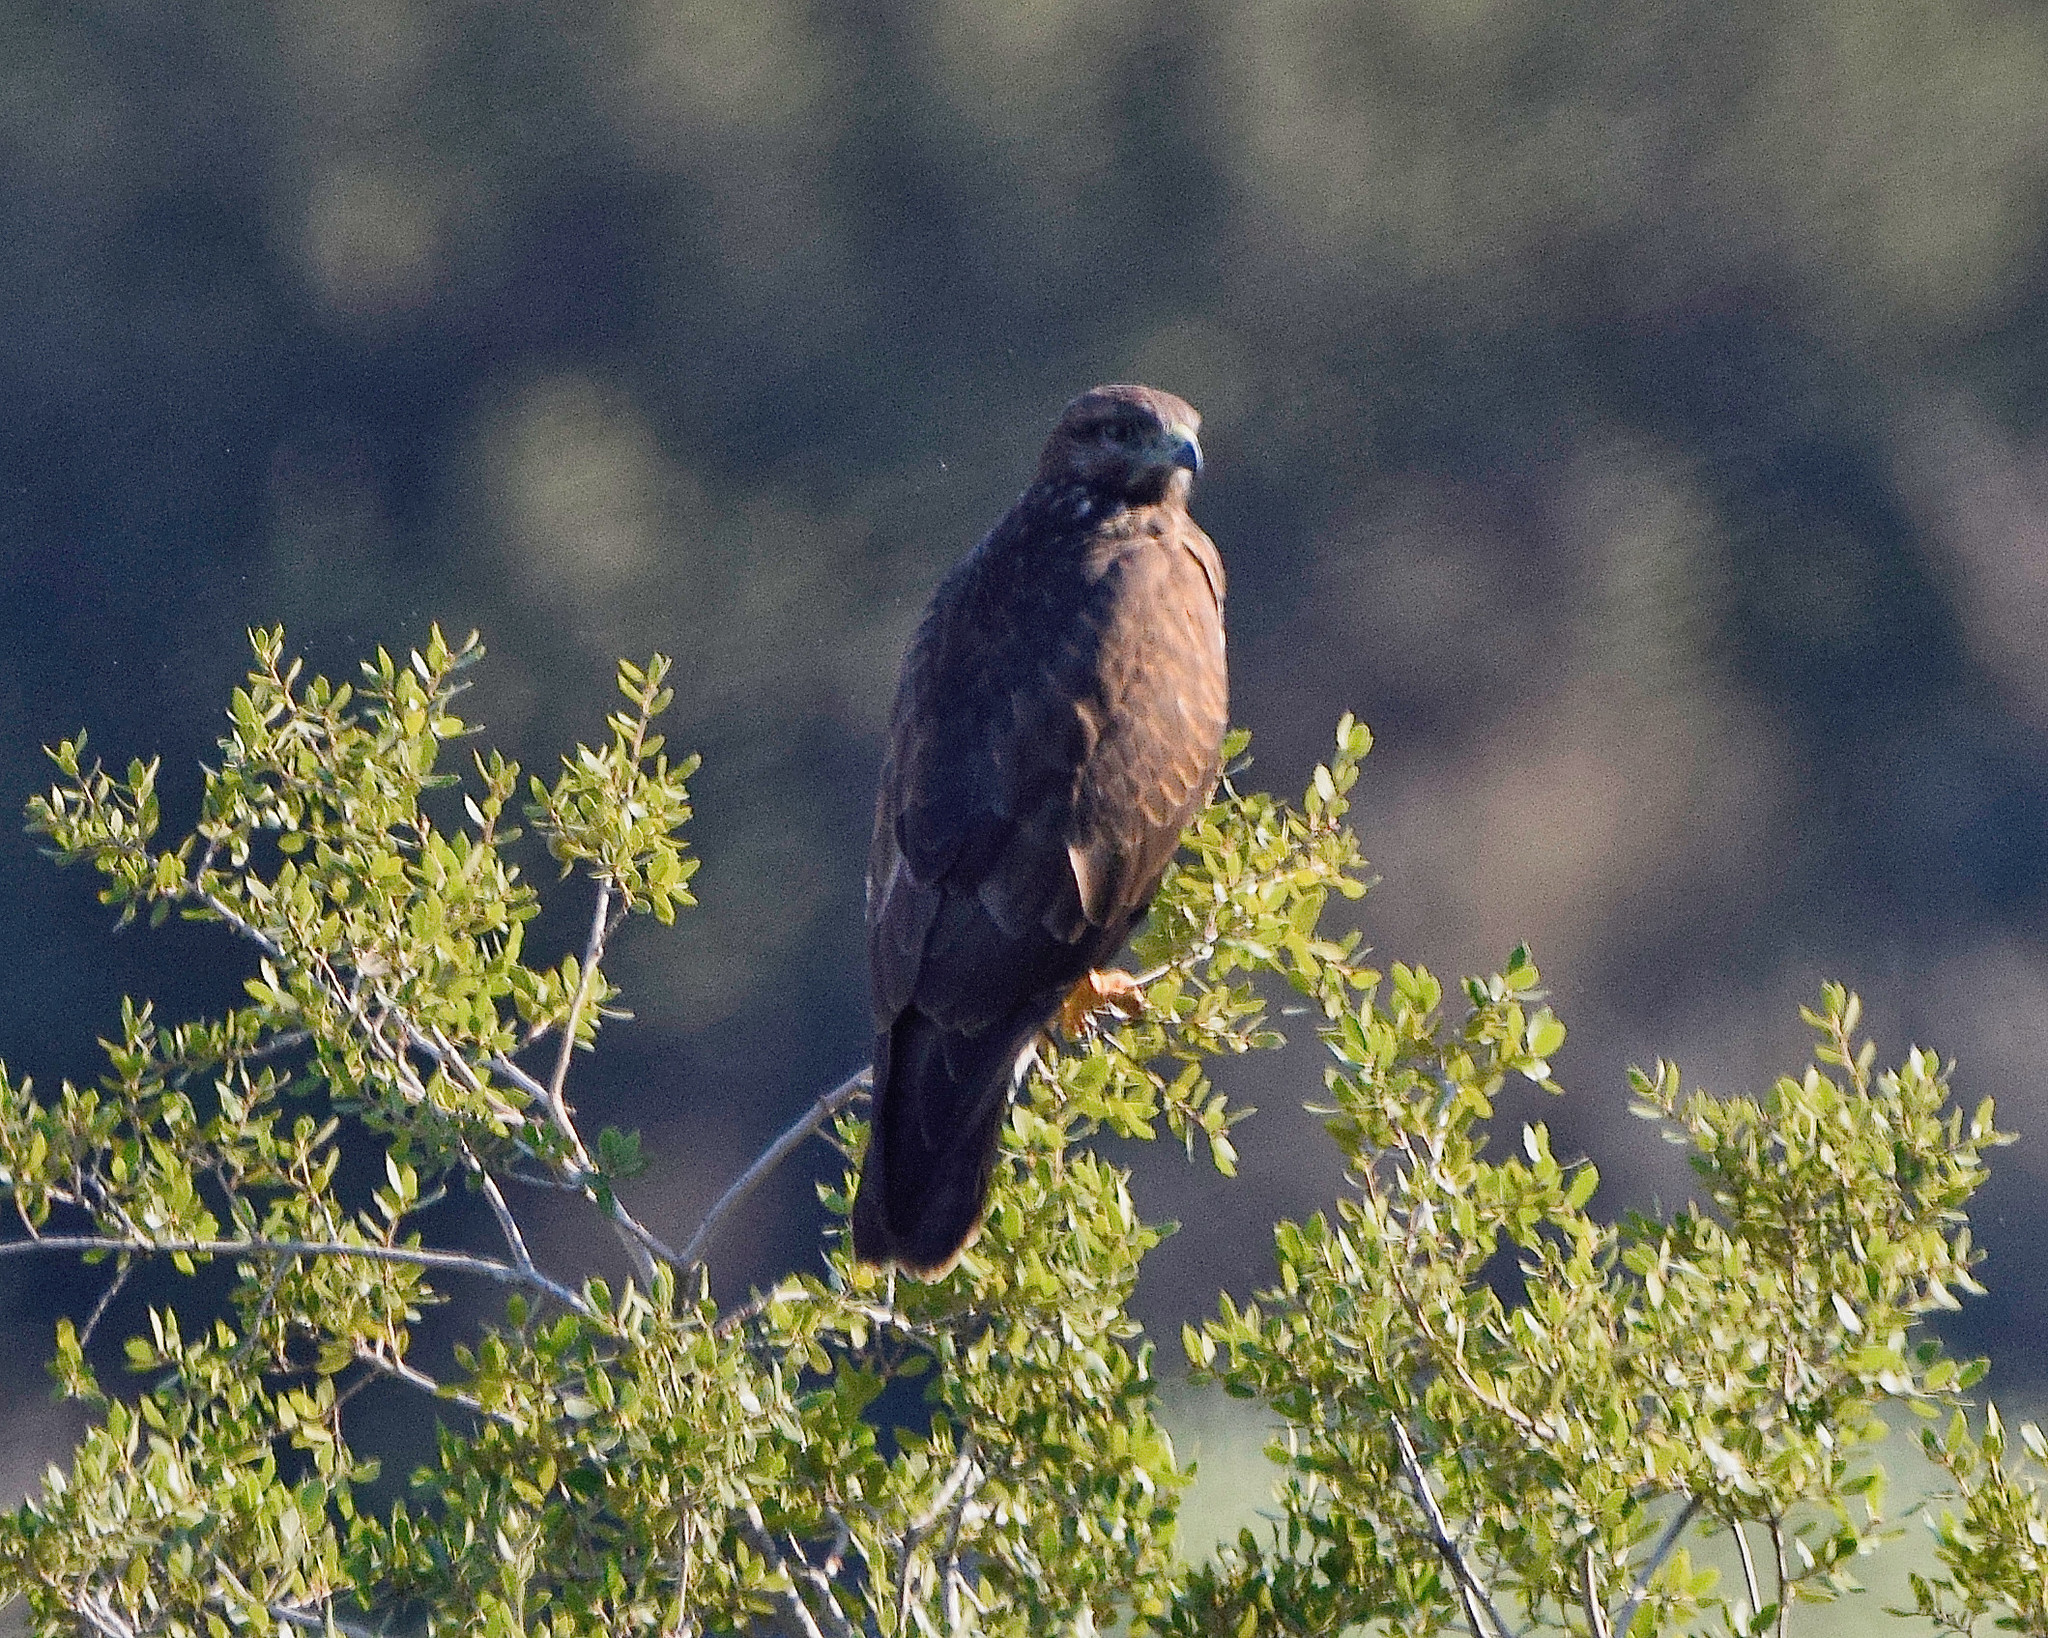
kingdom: Animalia
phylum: Chordata
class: Aves
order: Accipitriformes
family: Accipitridae
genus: Buteo
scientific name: Buteo buteo
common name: Common buzzard
